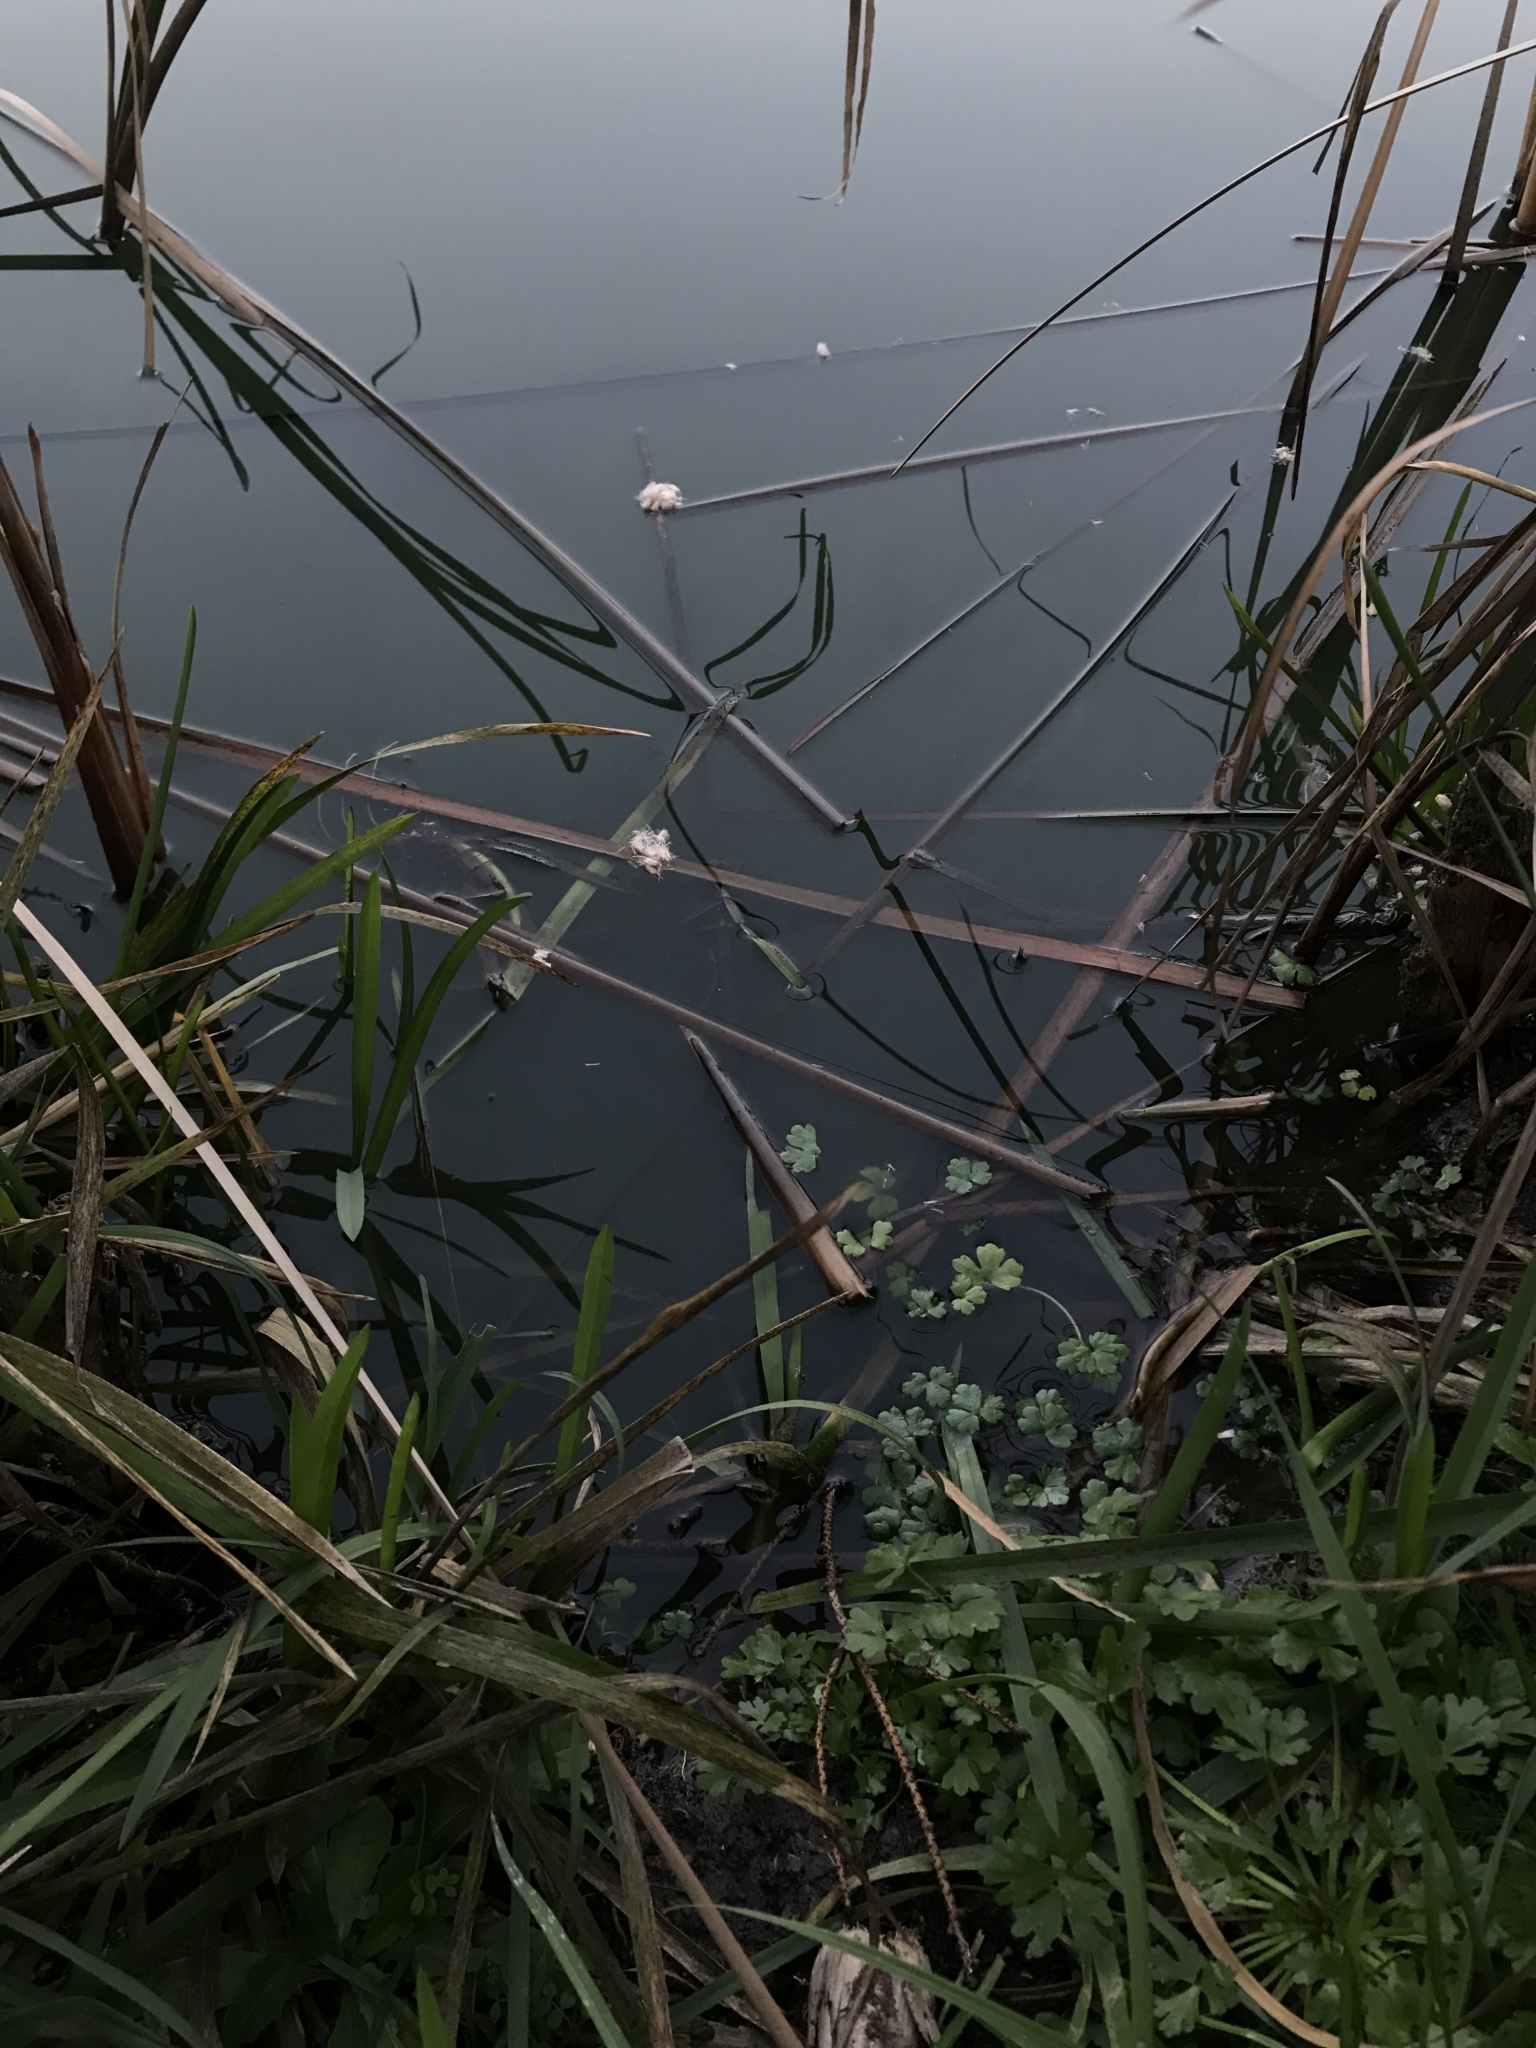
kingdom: Plantae
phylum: Tracheophyta
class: Magnoliopsida
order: Ranunculales
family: Ranunculaceae
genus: Ranunculus
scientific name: Ranunculus sceleratus
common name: Celery-leaved buttercup
